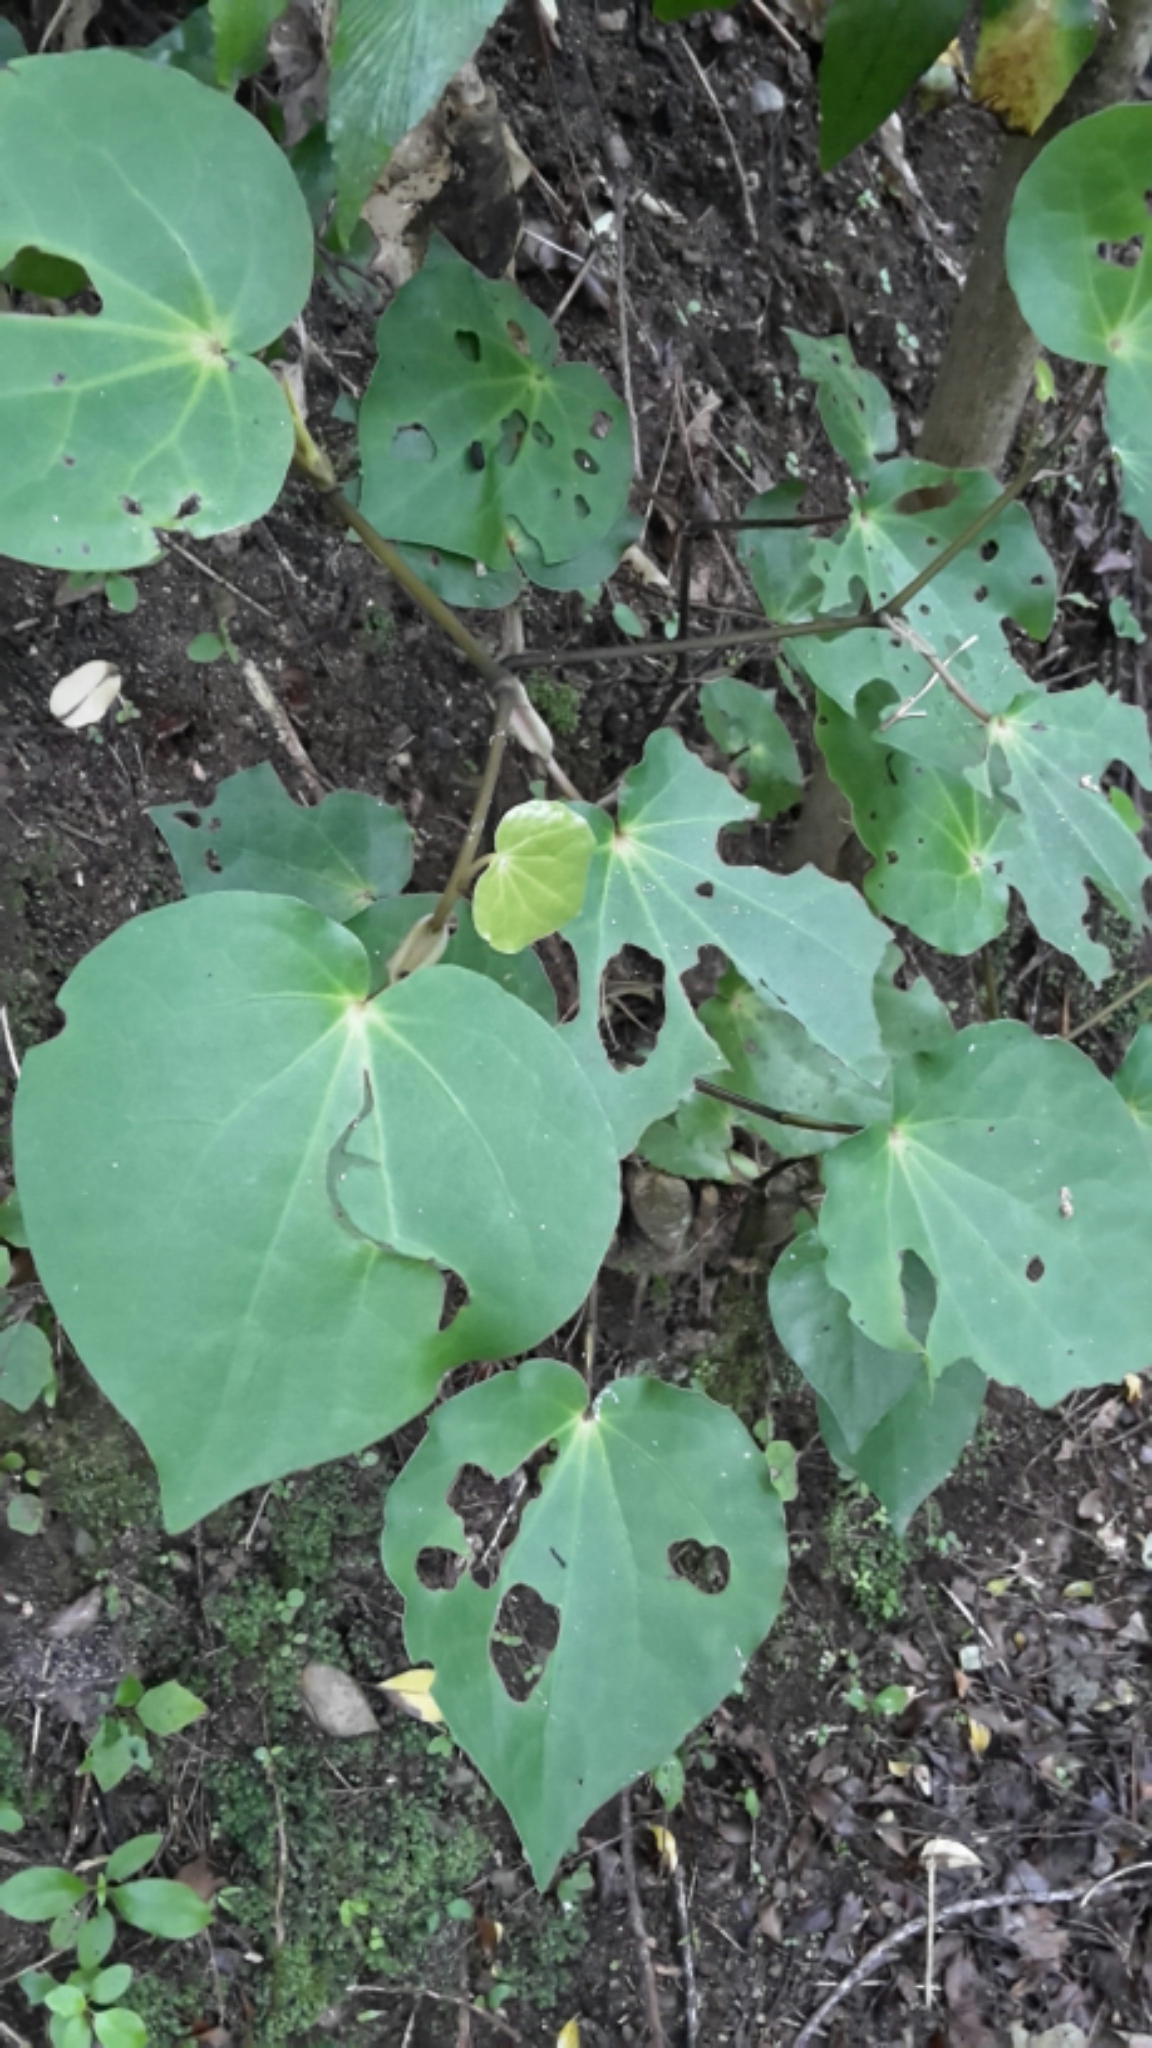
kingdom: Plantae
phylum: Tracheophyta
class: Magnoliopsida
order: Piperales
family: Piperaceae
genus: Macropiper
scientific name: Macropiper excelsum
